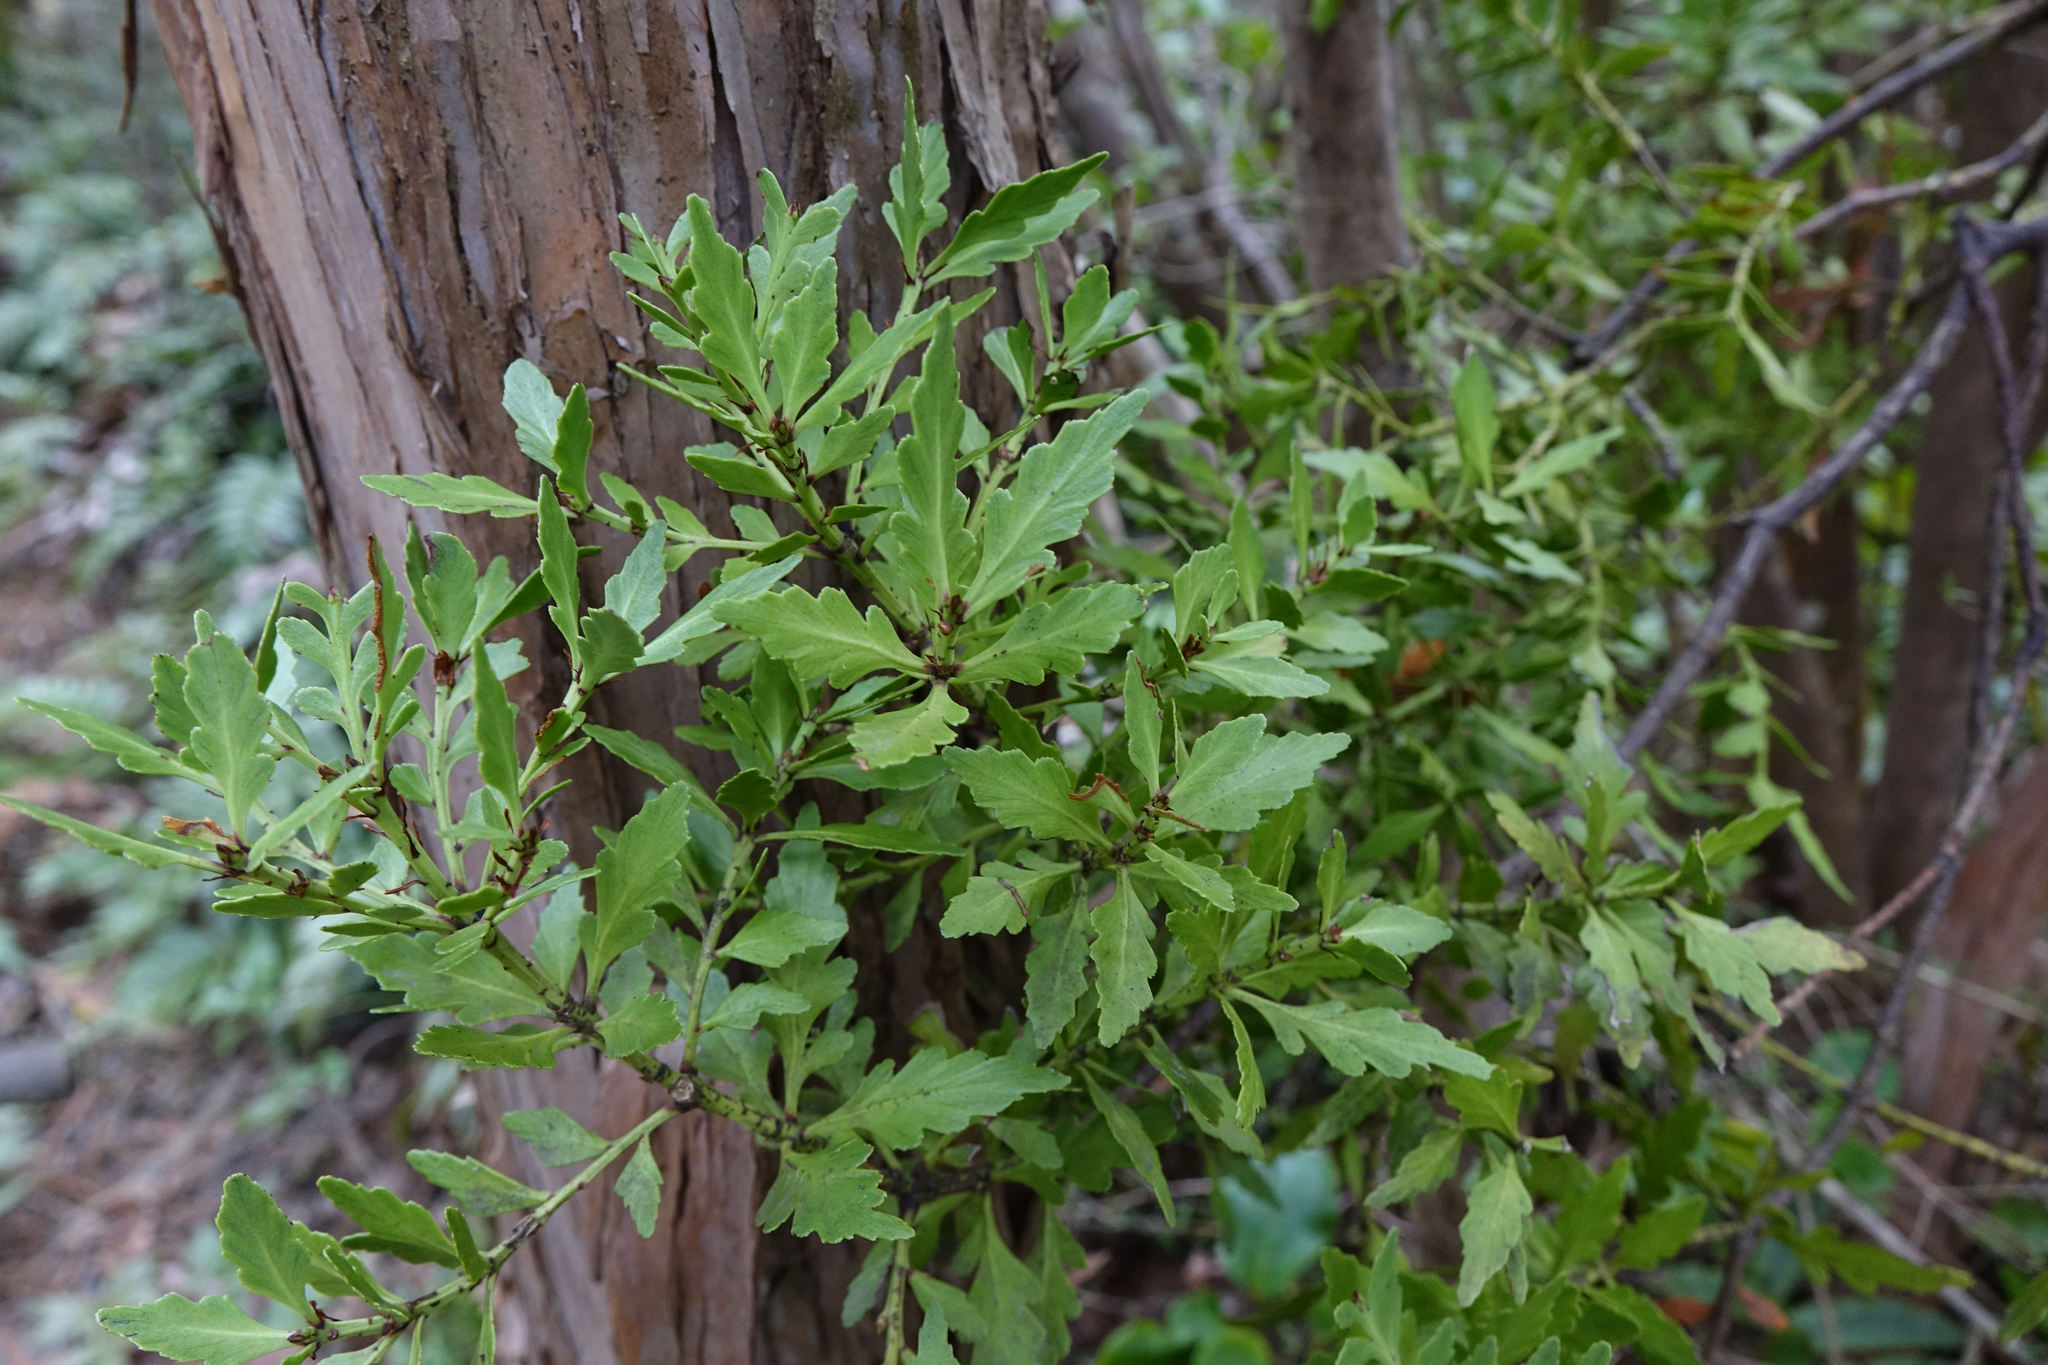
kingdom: Plantae
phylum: Tracheophyta
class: Pinopsida
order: Pinales
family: Phyllocladaceae
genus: Phyllocladus
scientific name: Phyllocladus trichomanoides
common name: Celery pine
